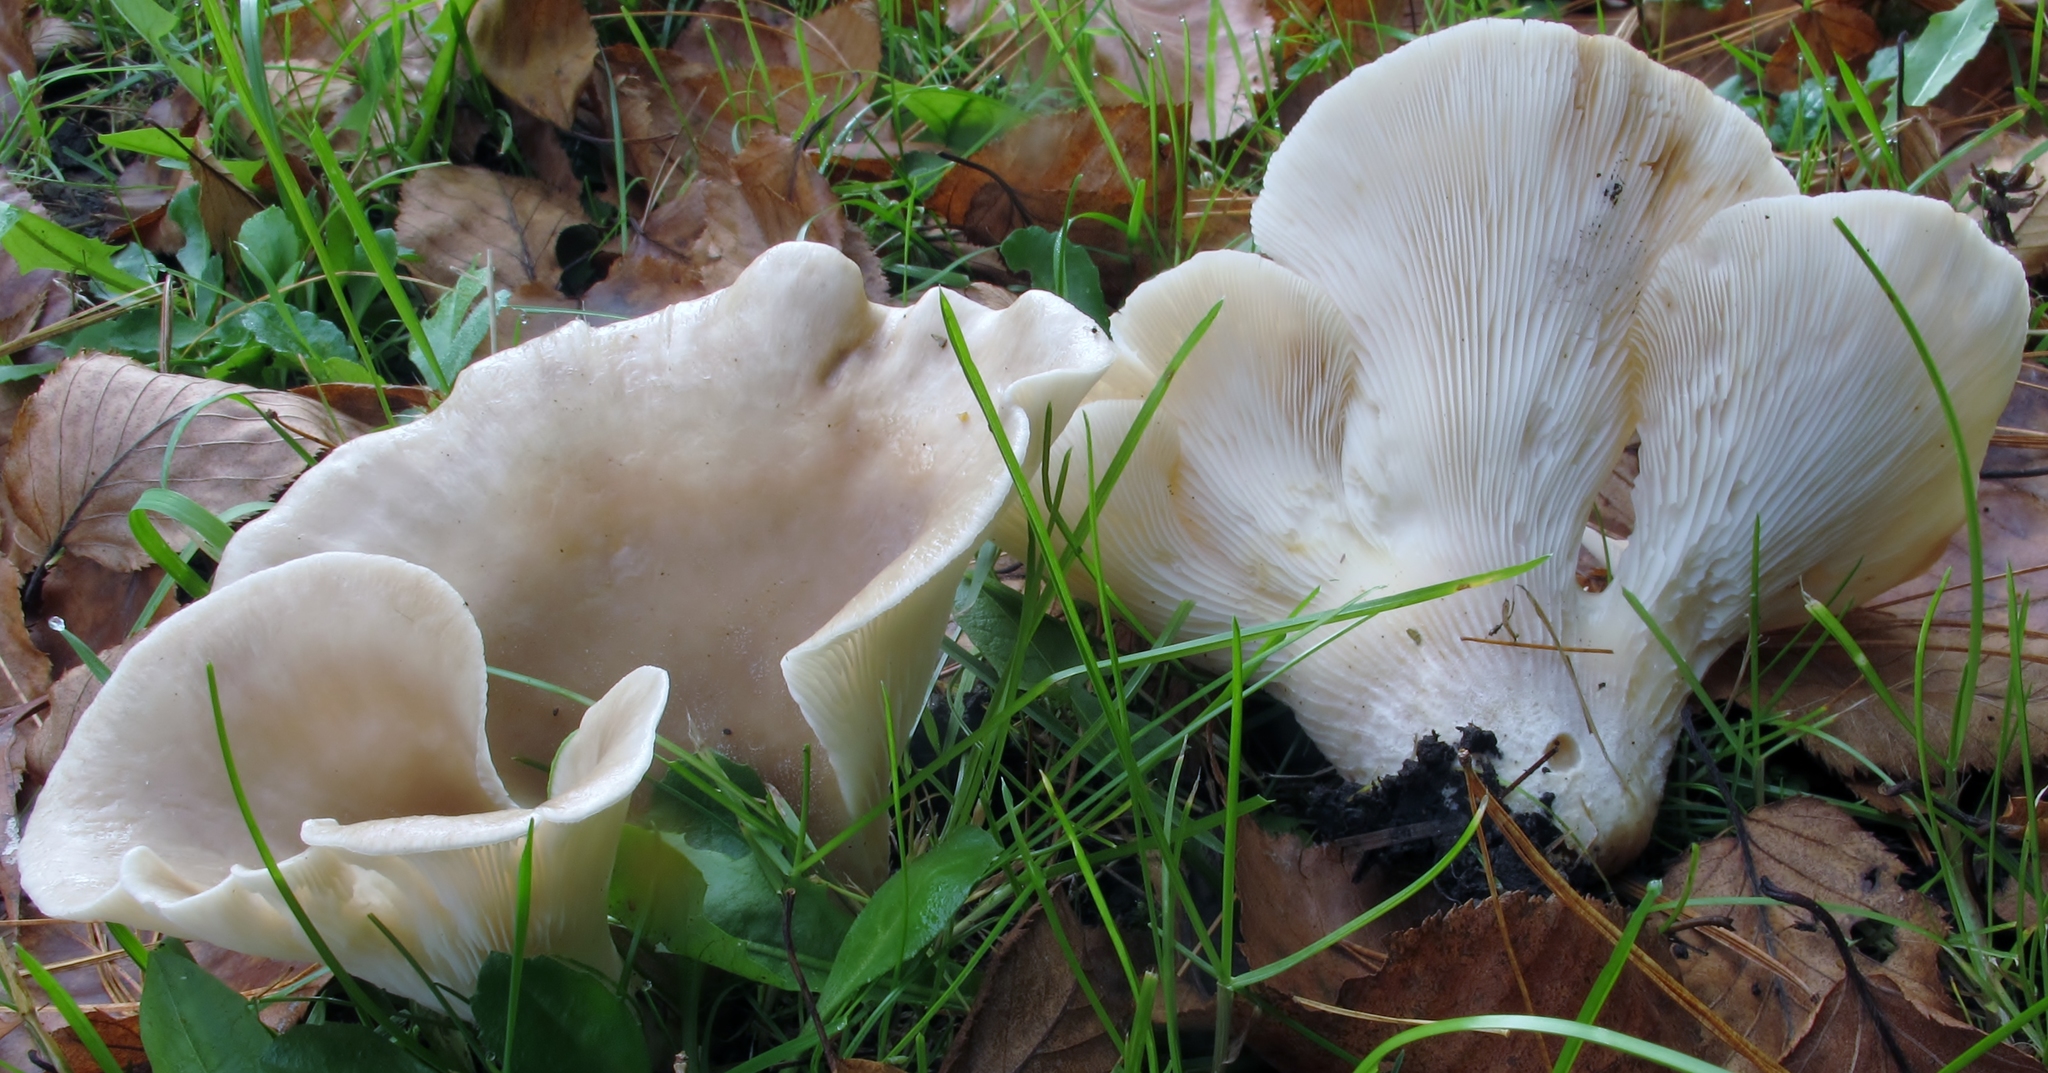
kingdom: Fungi
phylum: Basidiomycota
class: Agaricomycetes
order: Agaricales
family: Pleurotaceae
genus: Hohenbuehelia
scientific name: Hohenbuehelia petaloides
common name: Shoehorn oyster
